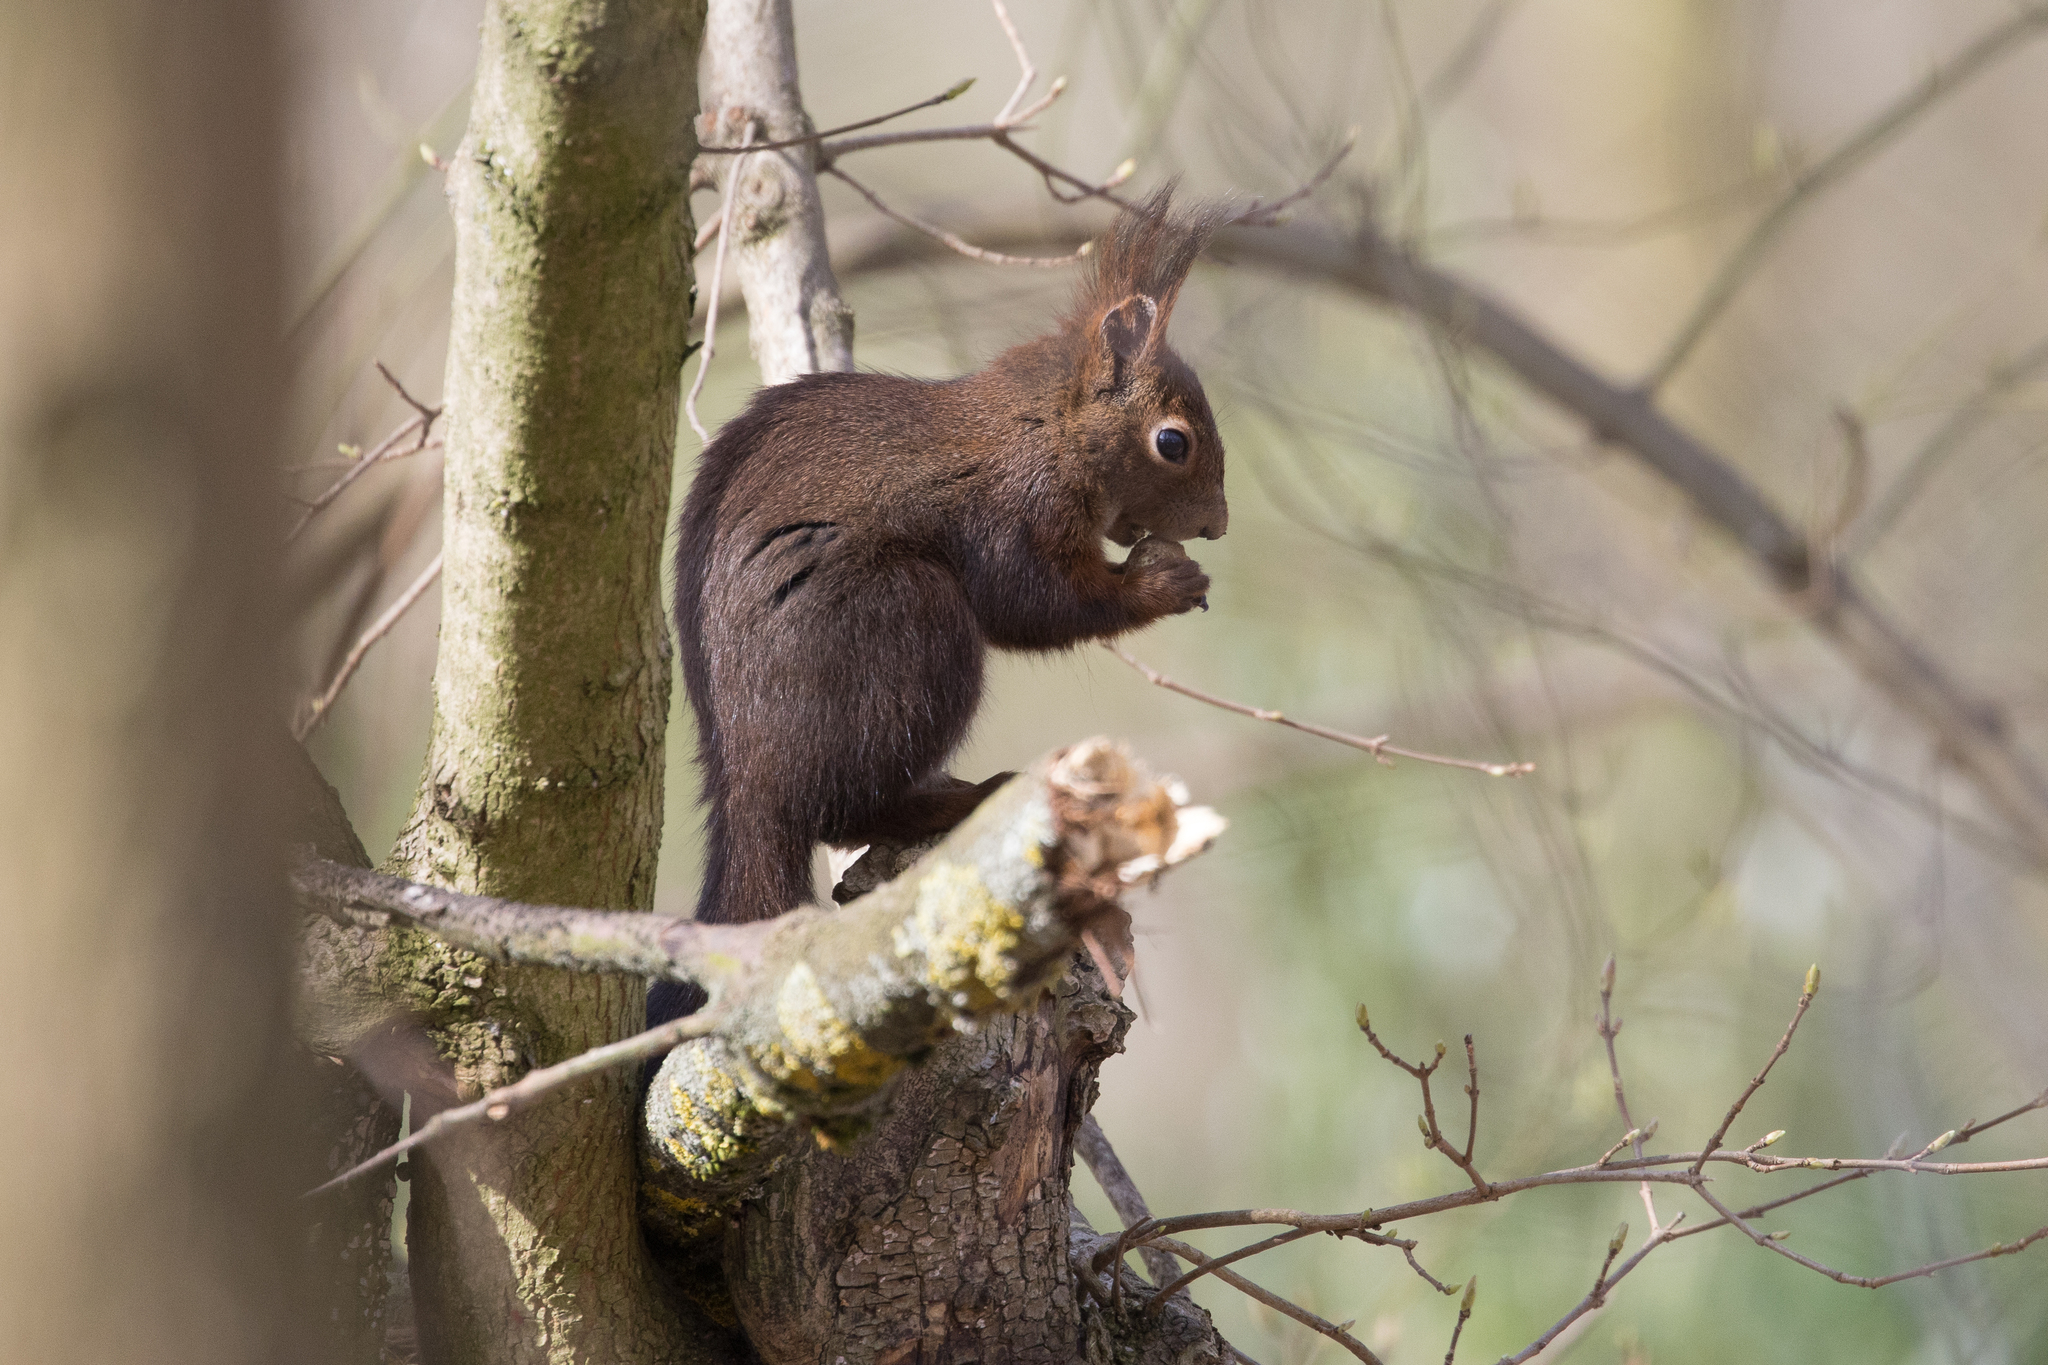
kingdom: Animalia
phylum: Chordata
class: Mammalia
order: Rodentia
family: Sciuridae
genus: Sciurus
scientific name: Sciurus vulgaris
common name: Eurasian red squirrel
